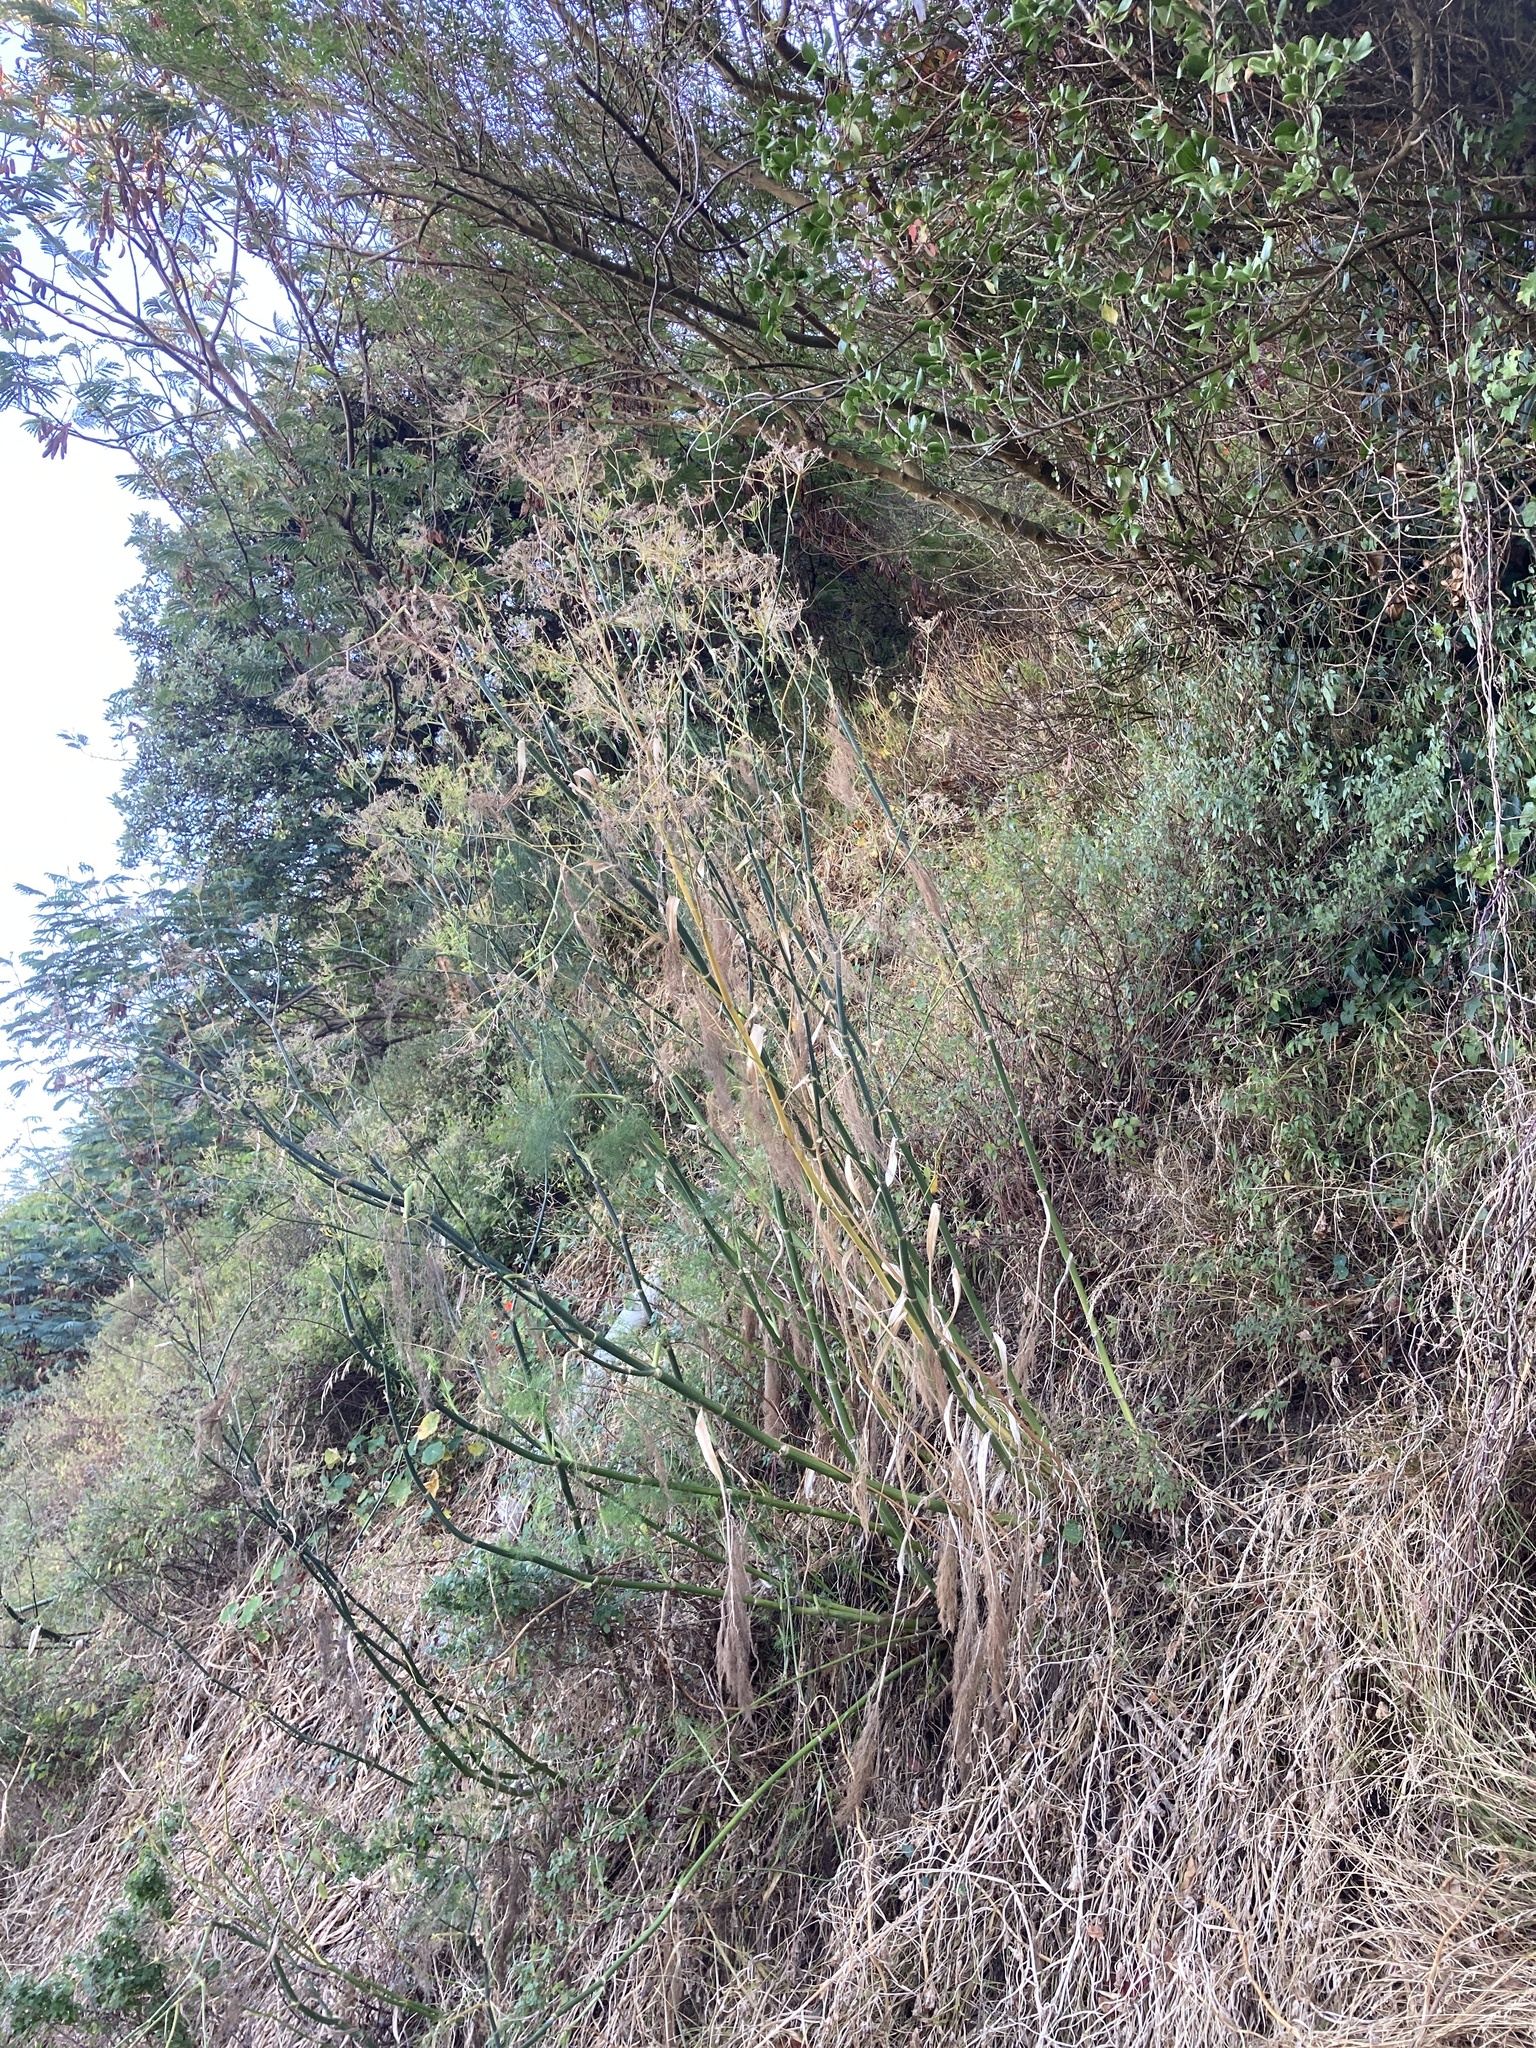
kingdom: Plantae
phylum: Tracheophyta
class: Magnoliopsida
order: Apiales
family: Apiaceae
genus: Foeniculum
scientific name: Foeniculum vulgare
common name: Fennel
